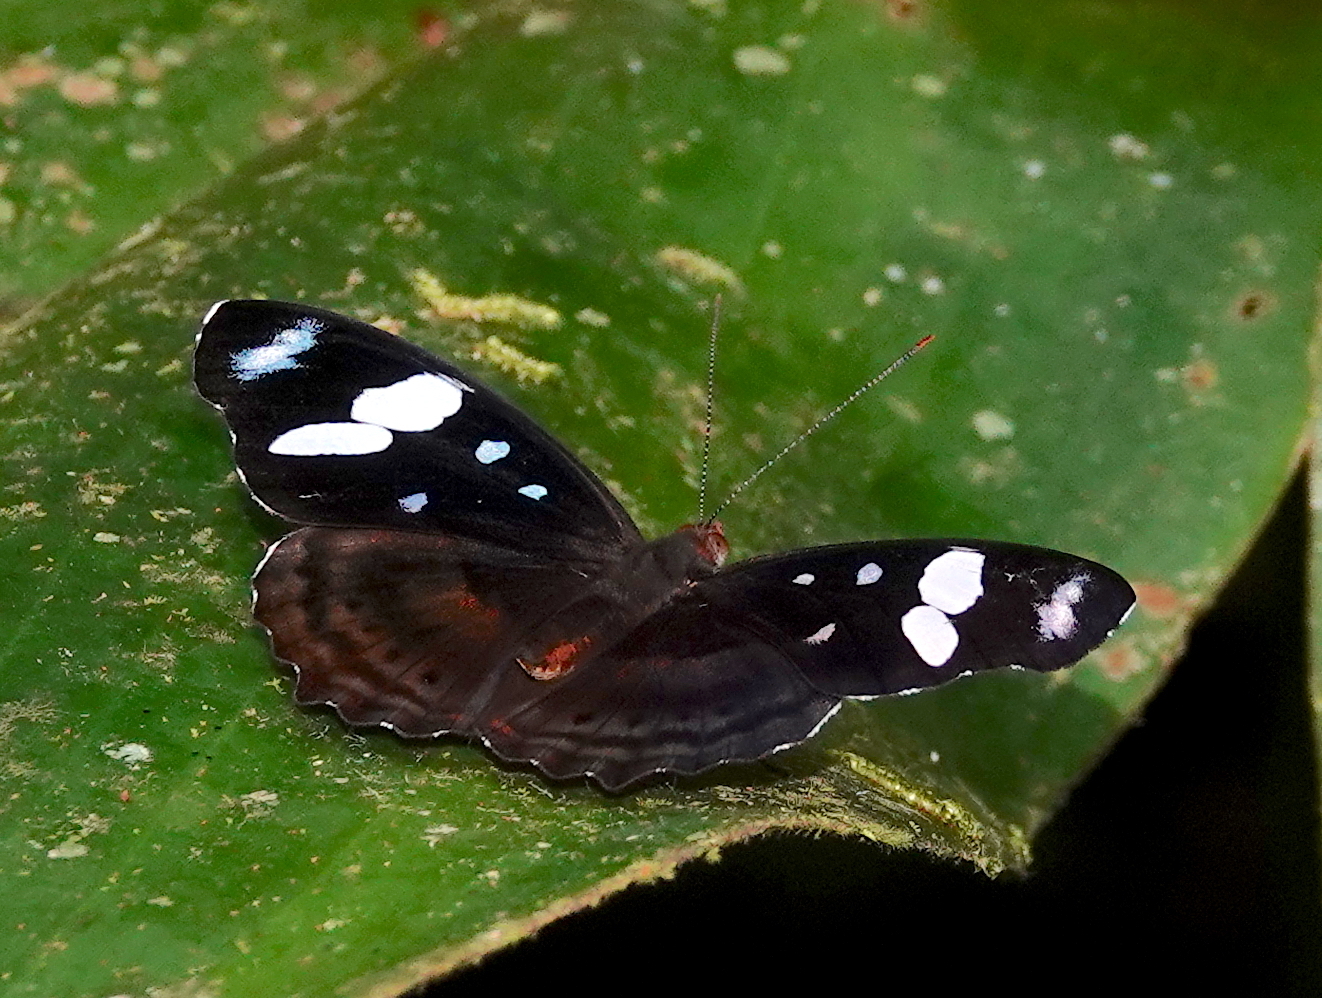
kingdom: Animalia
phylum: Arthropoda
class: Insecta
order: Lepidoptera
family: Nymphalidae
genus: Myscelia
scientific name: Myscelia capenas
